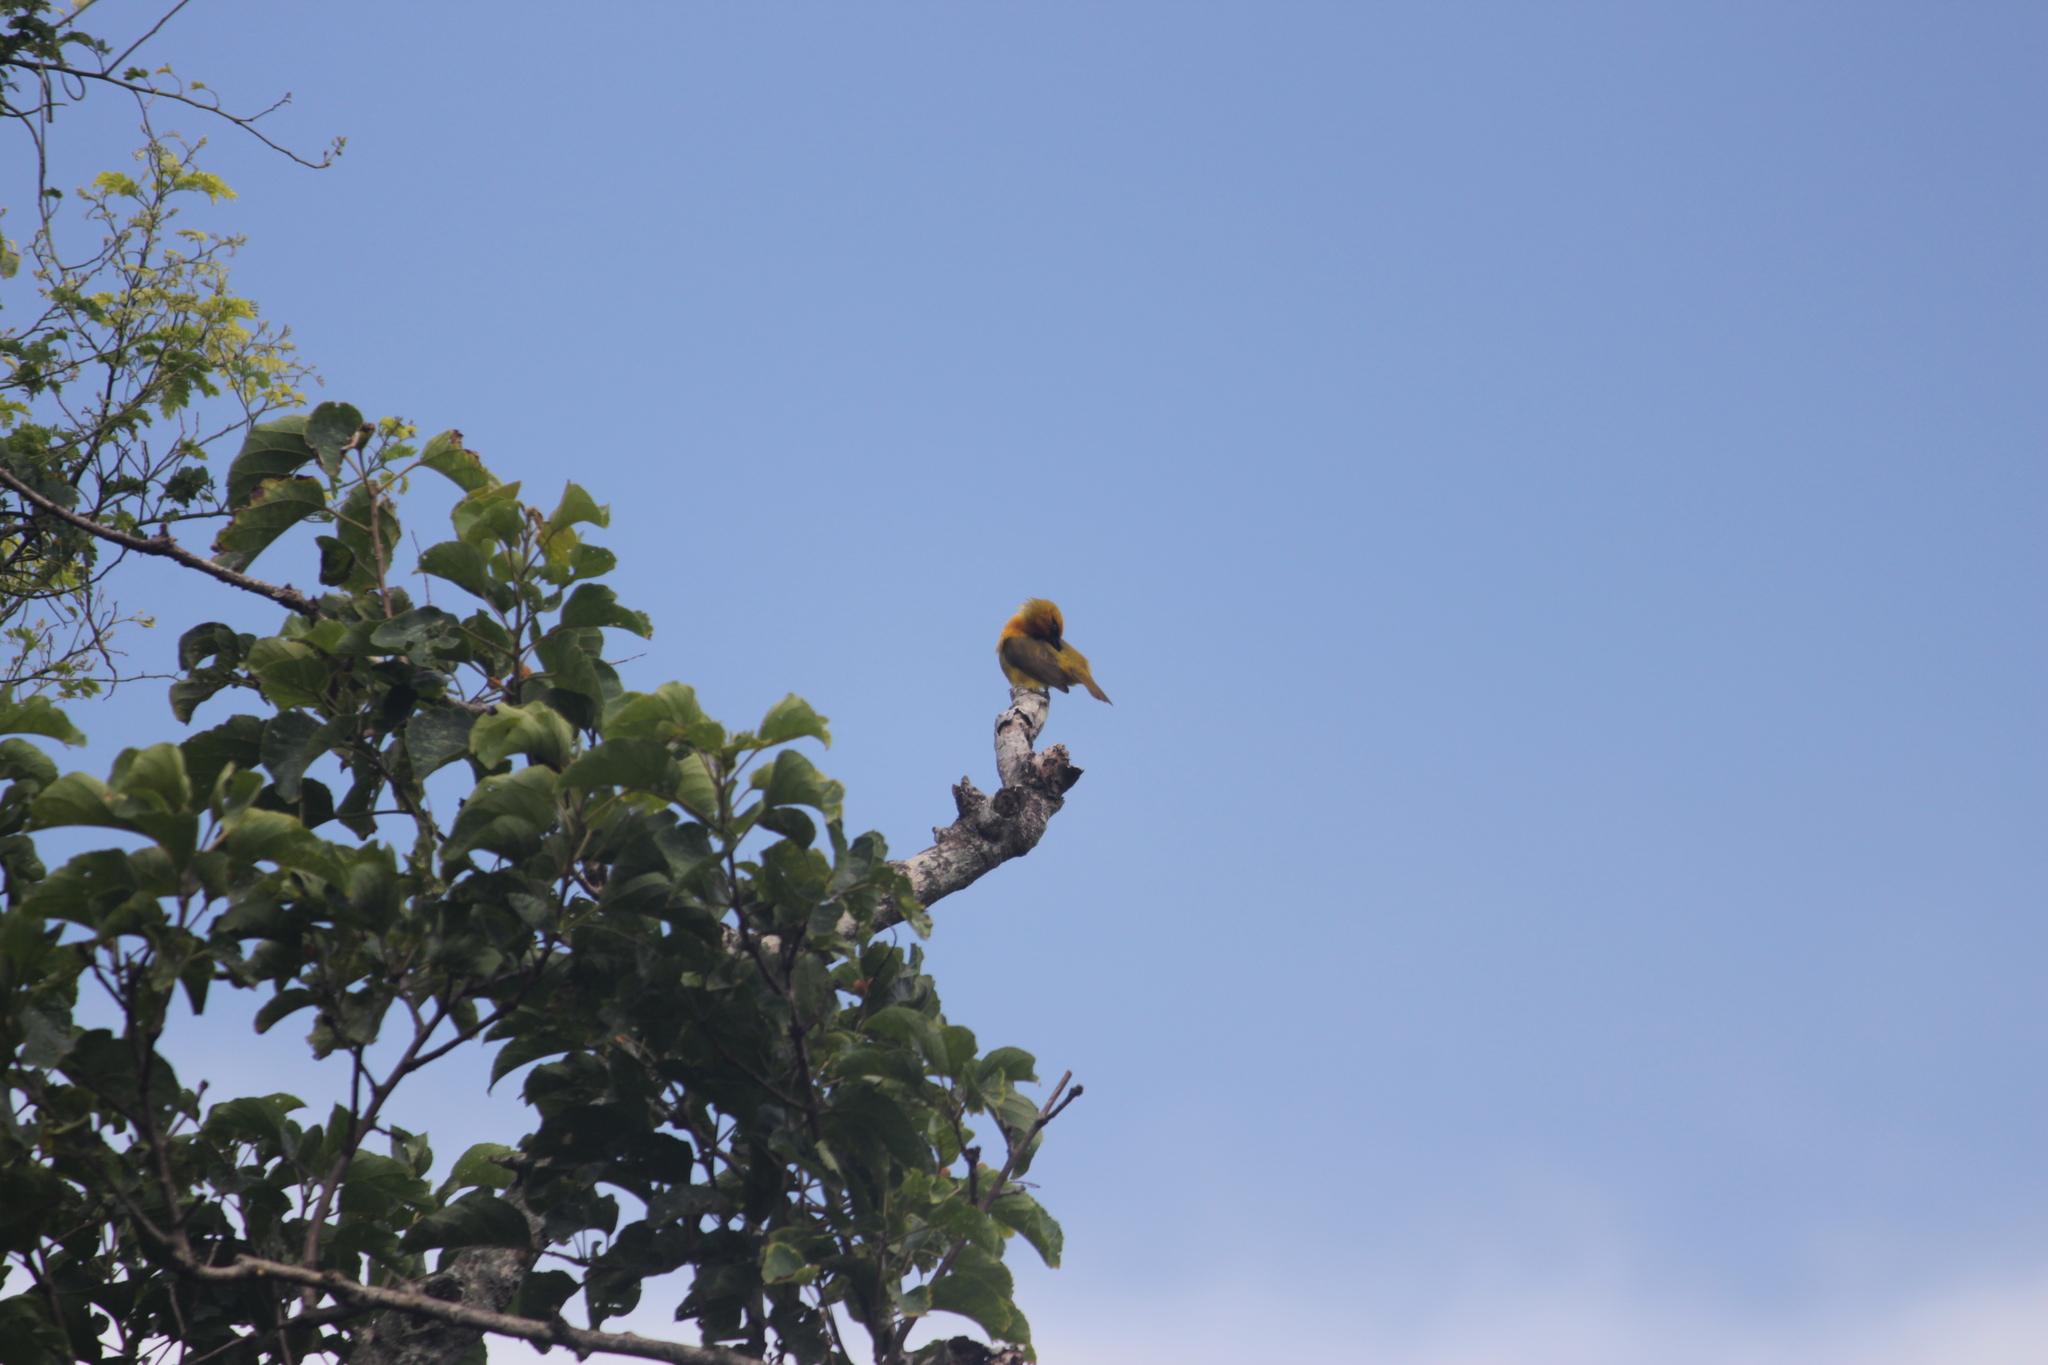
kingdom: Animalia
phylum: Chordata
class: Aves
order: Passeriformes
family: Ploceidae
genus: Ploceus
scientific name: Ploceus ocularis
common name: Spectacled weaver
